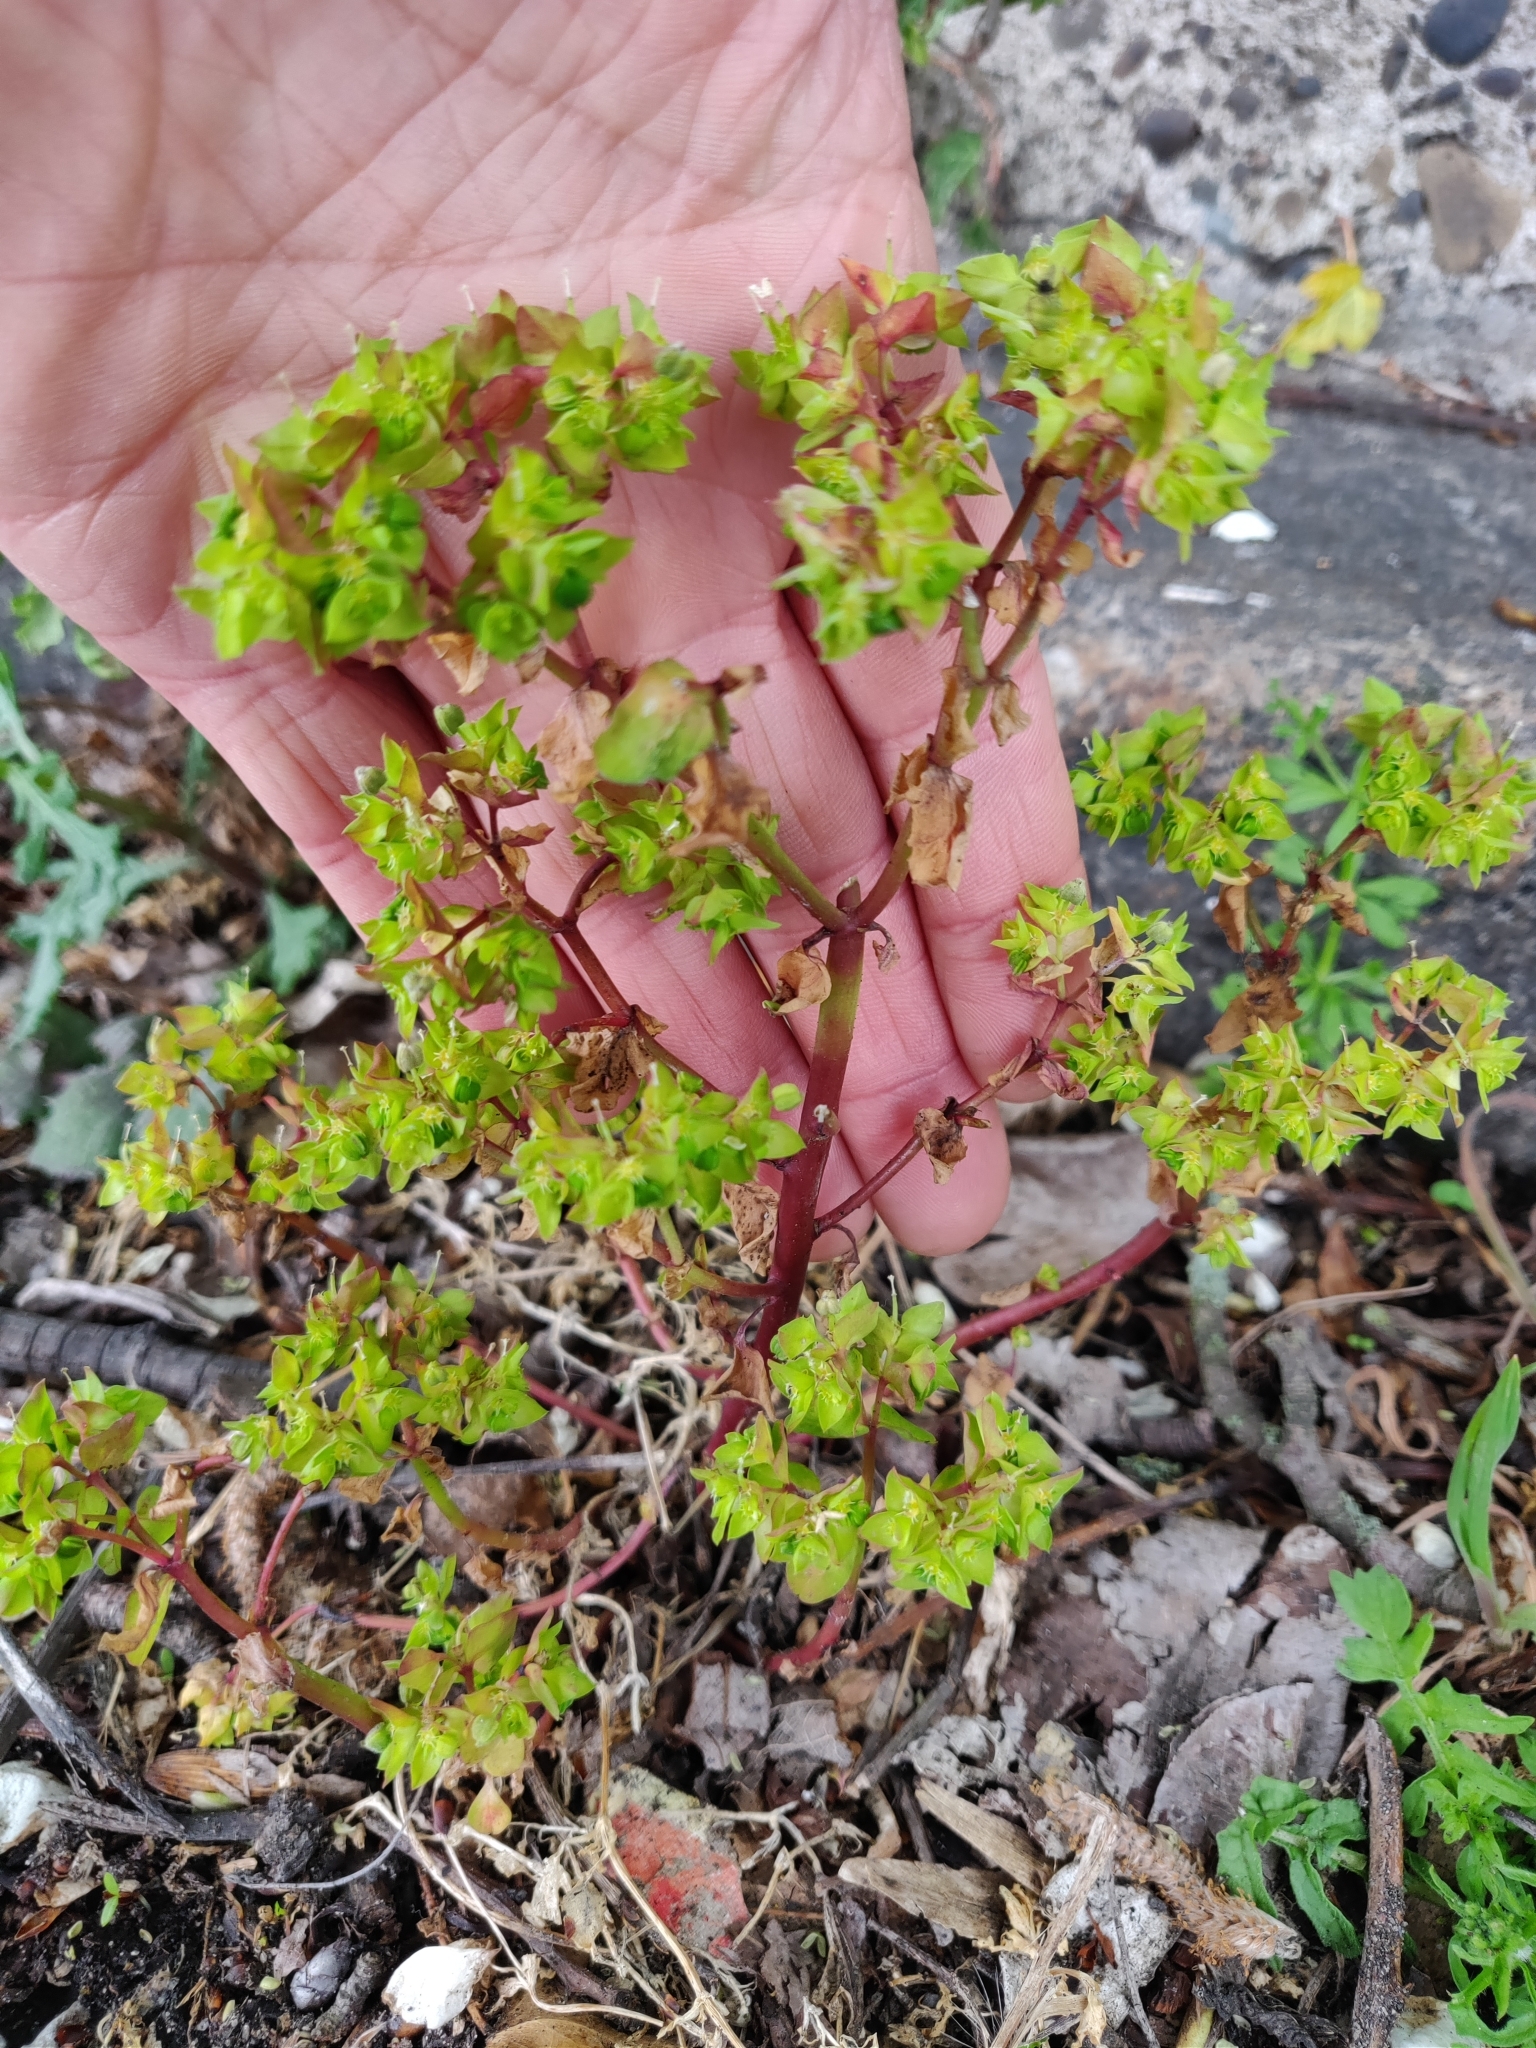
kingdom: Plantae
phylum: Tracheophyta
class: Magnoliopsida
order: Malpighiales
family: Euphorbiaceae
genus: Euphorbia
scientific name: Euphorbia peplus
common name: Petty spurge
